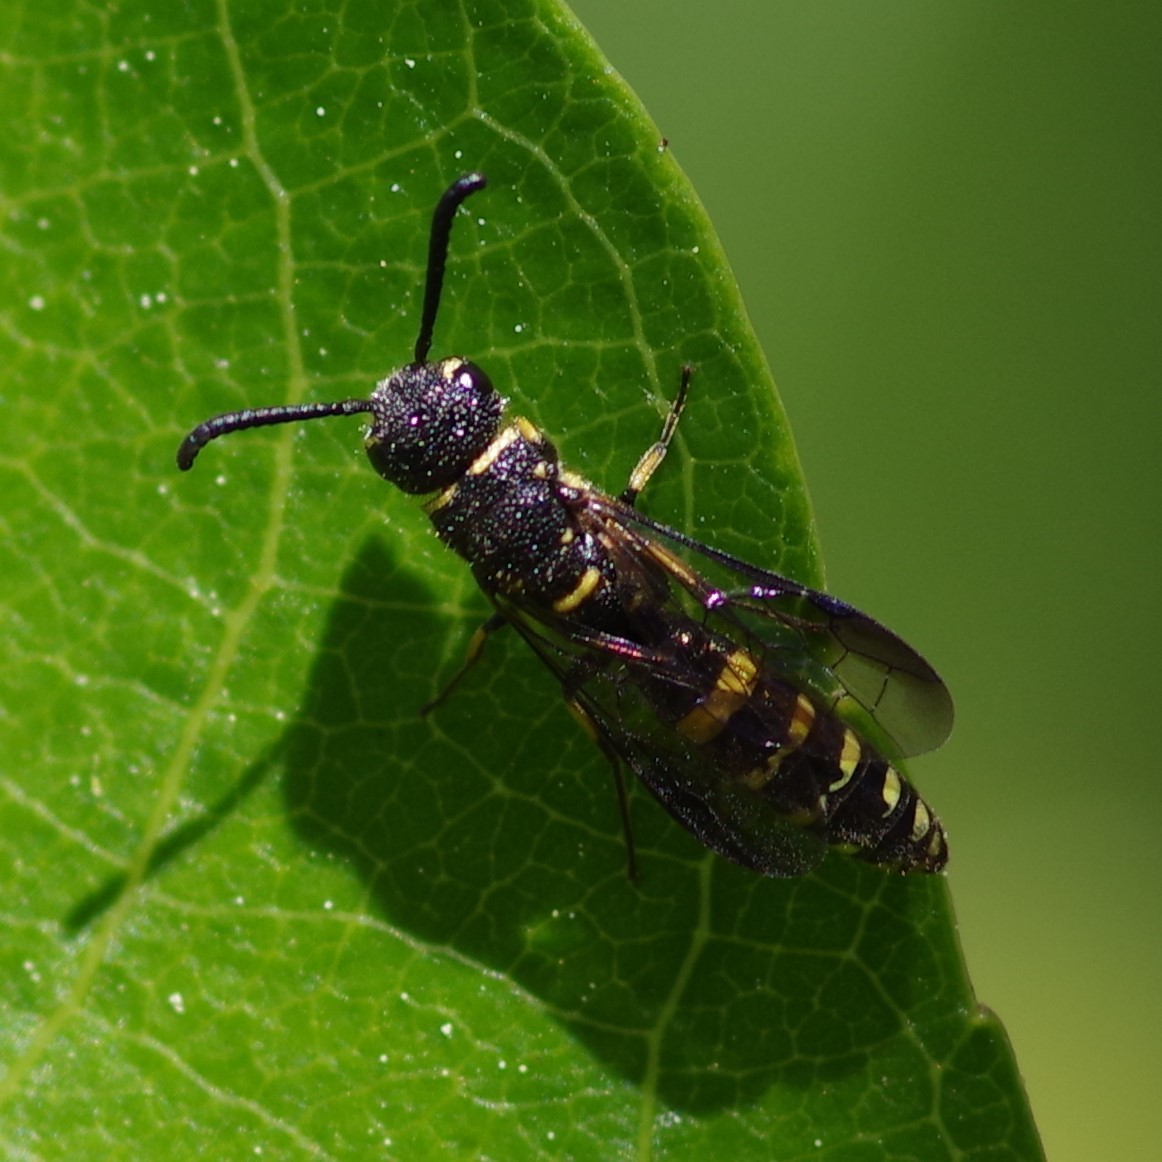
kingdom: Animalia
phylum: Arthropoda
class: Insecta
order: Hymenoptera
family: Sapygidae
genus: Sapyga
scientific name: Sapyga louisi
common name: Louis's club-horned cuckoo wasp
